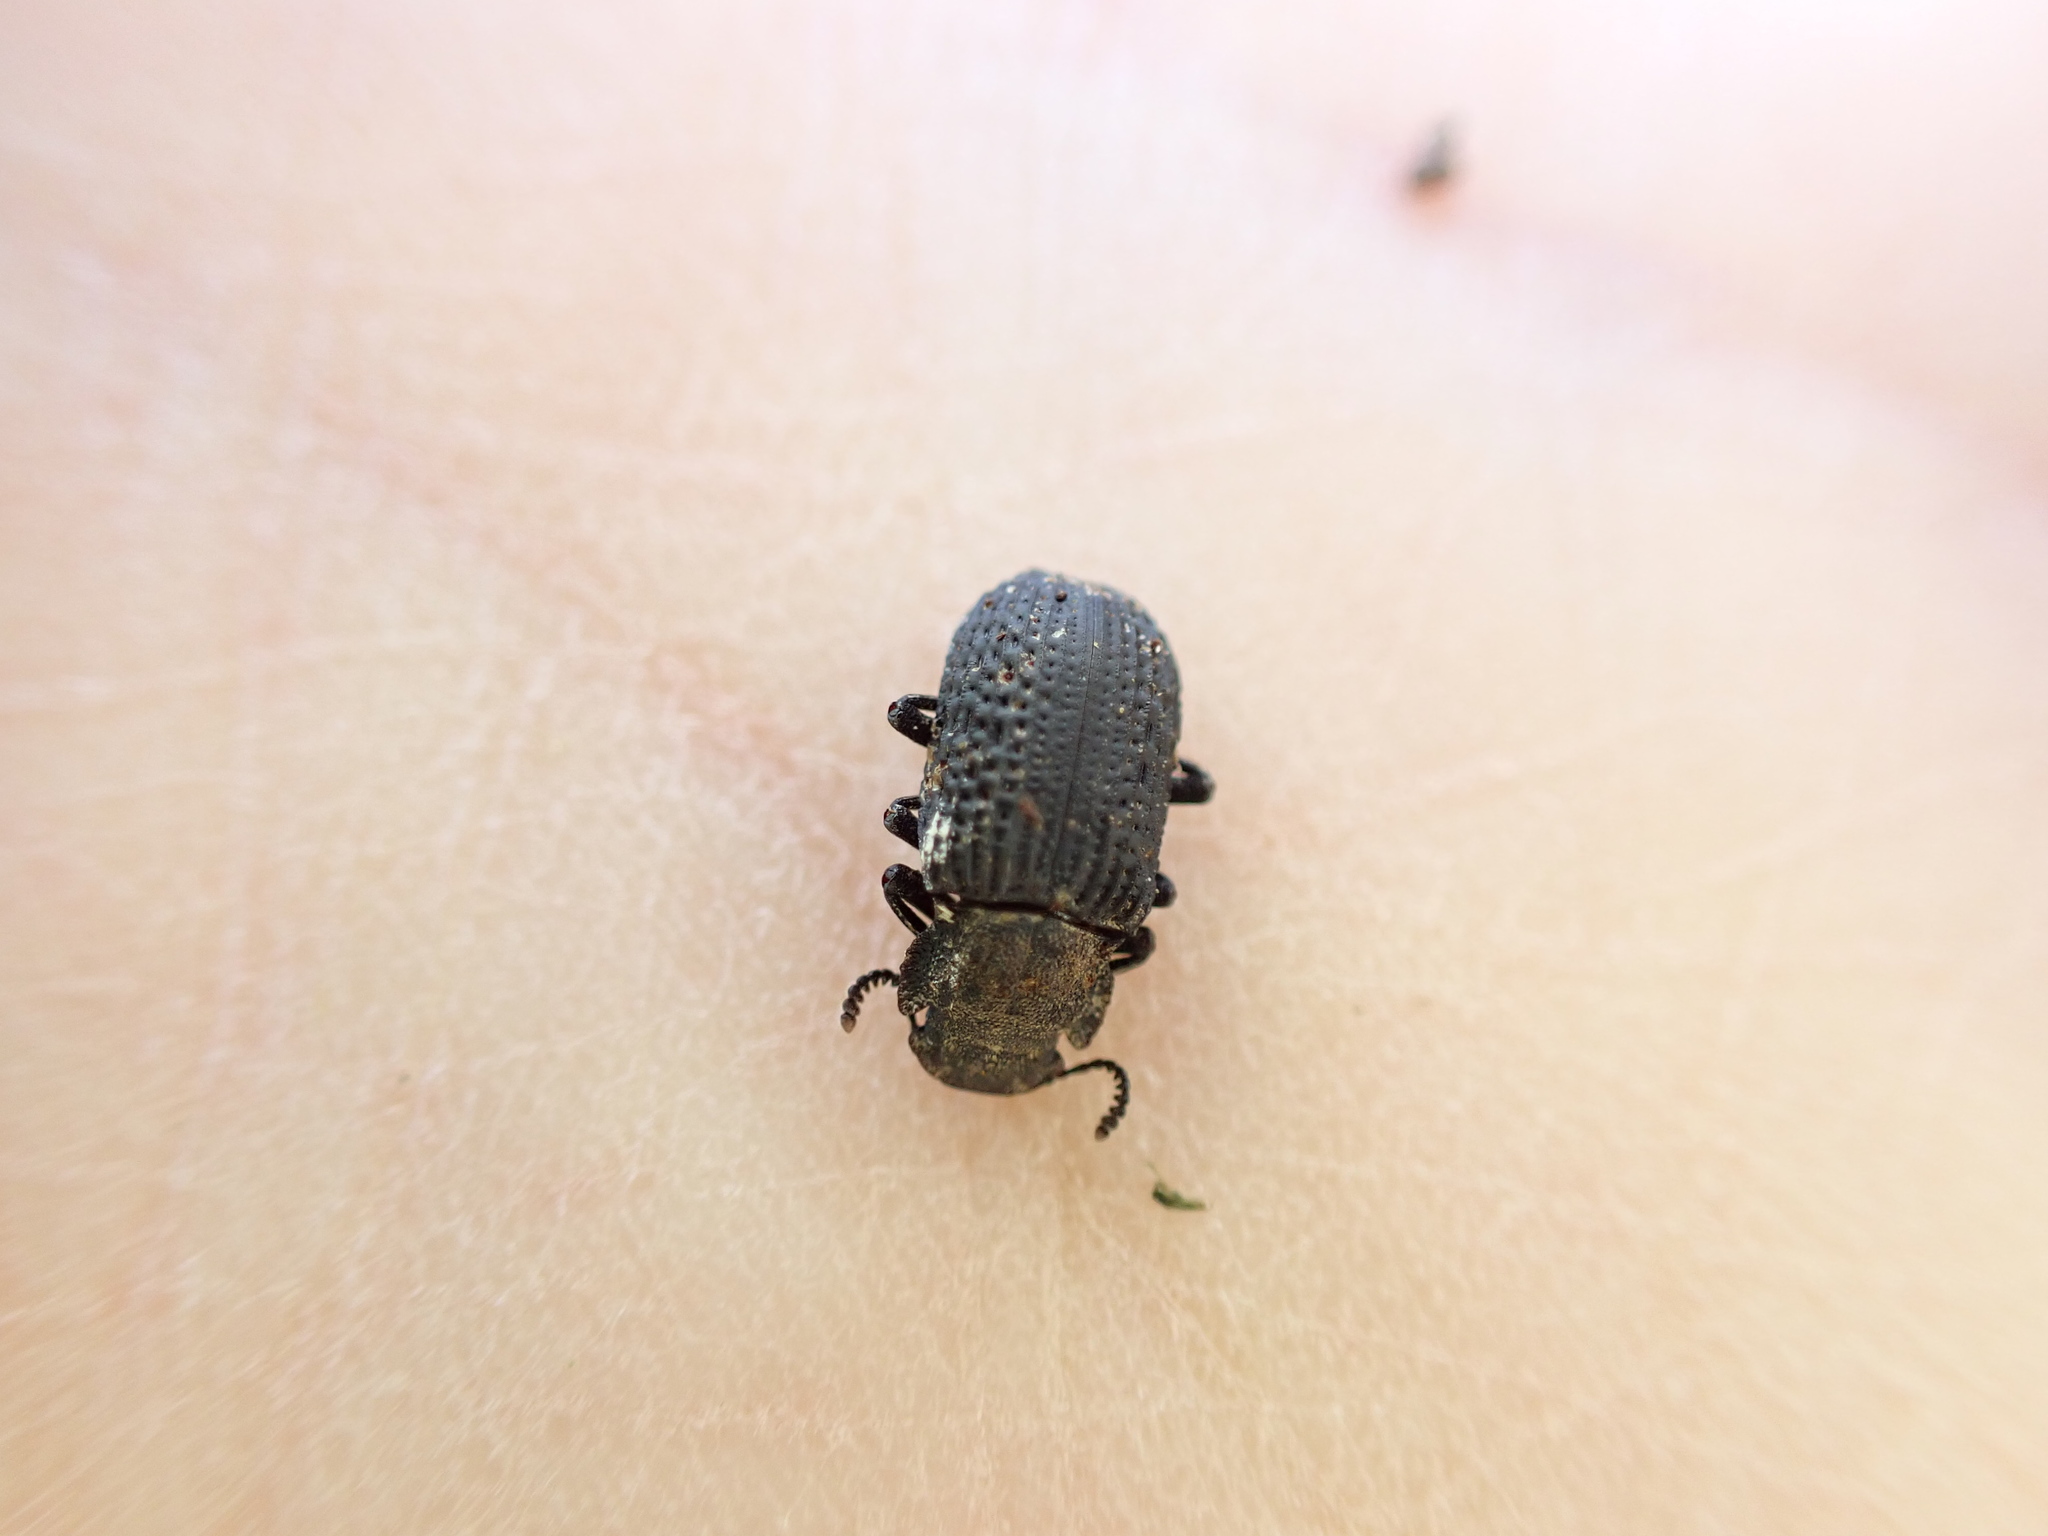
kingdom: Animalia
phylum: Arthropoda
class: Insecta
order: Coleoptera
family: Tenebrionidae
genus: Bolitophagus
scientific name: Bolitophagus reticulatus
